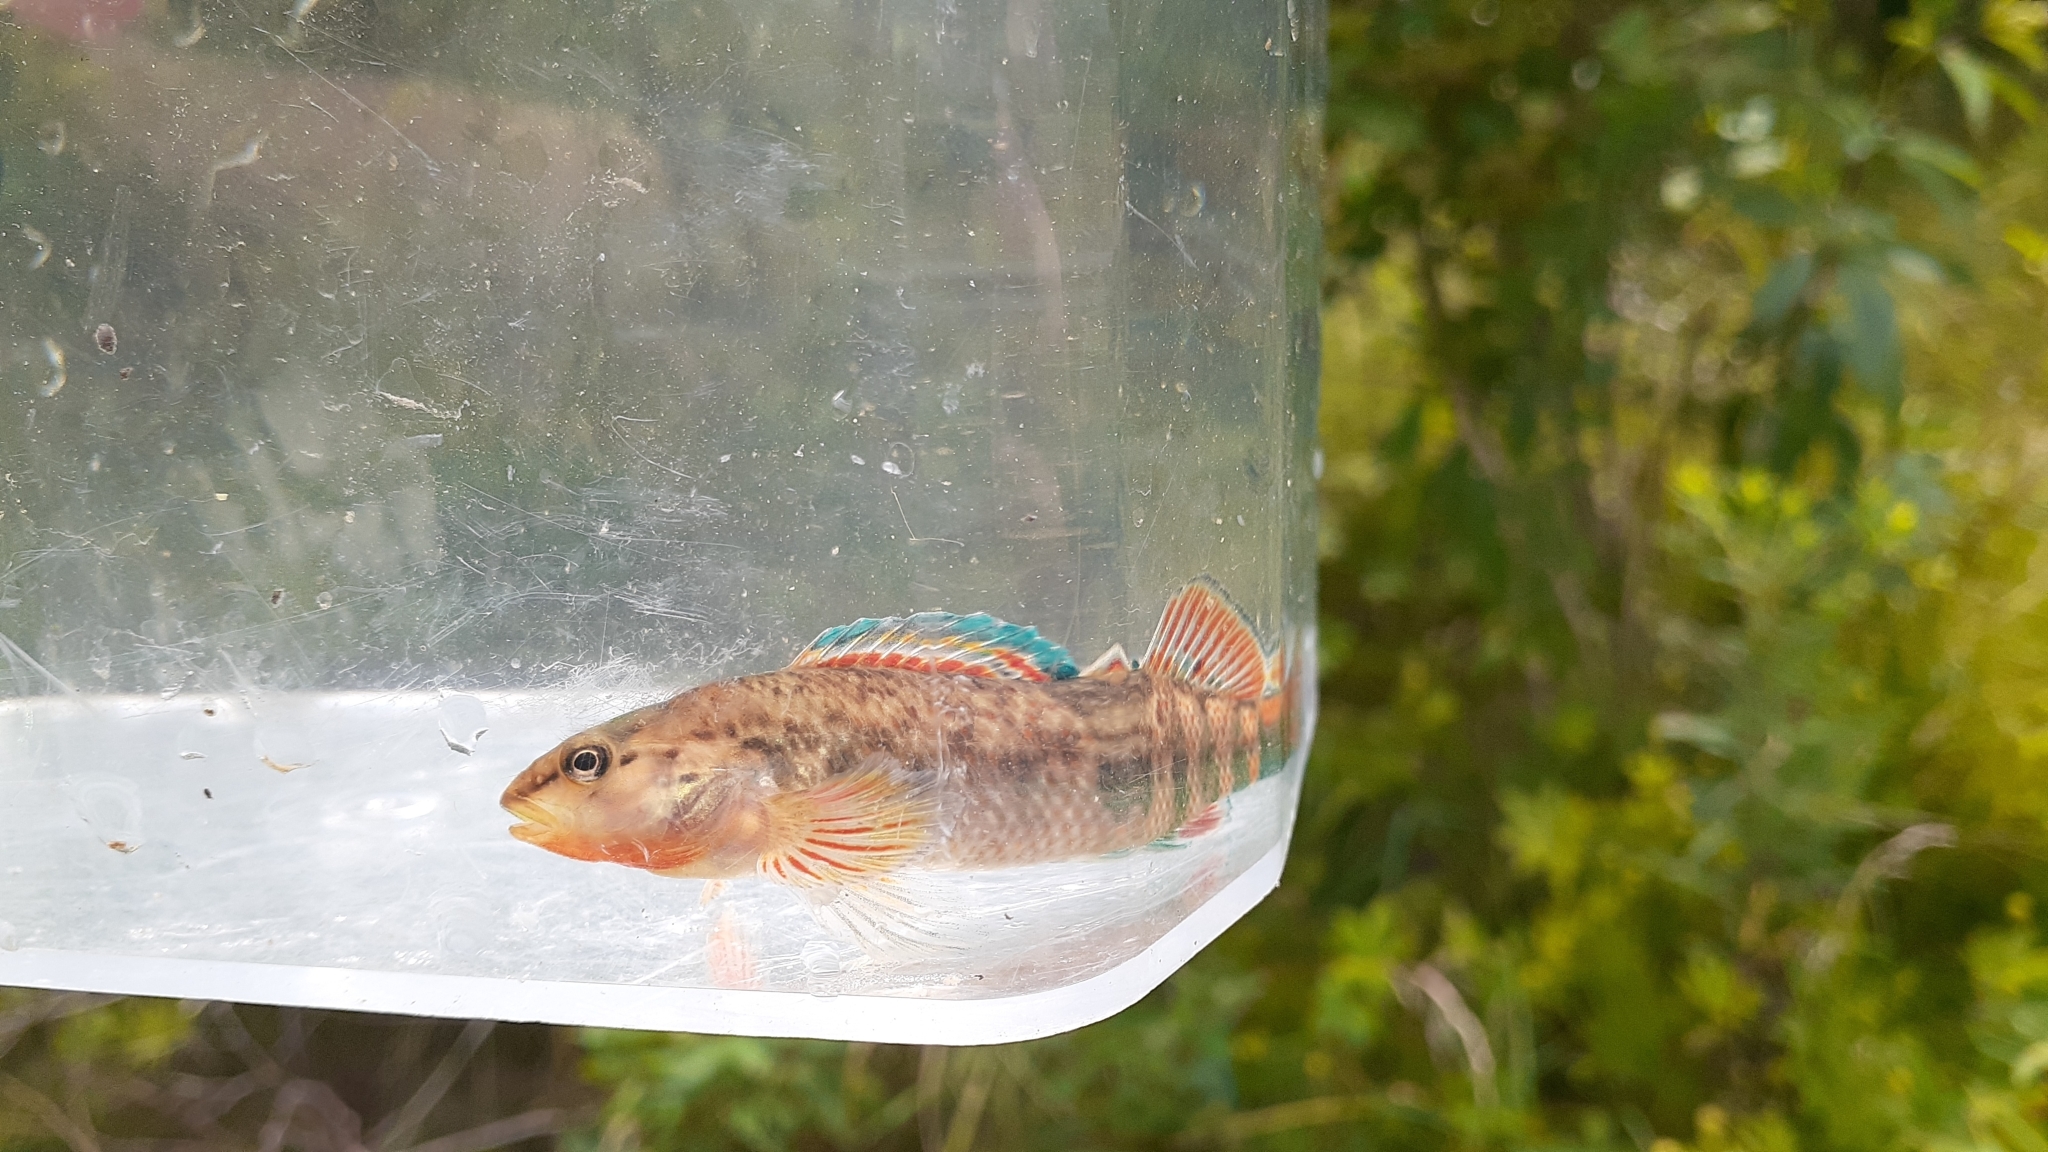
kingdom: Animalia
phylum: Chordata
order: Perciformes
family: Percidae
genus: Etheostoma
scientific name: Etheostoma caeruleum
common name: Rainbow darter
